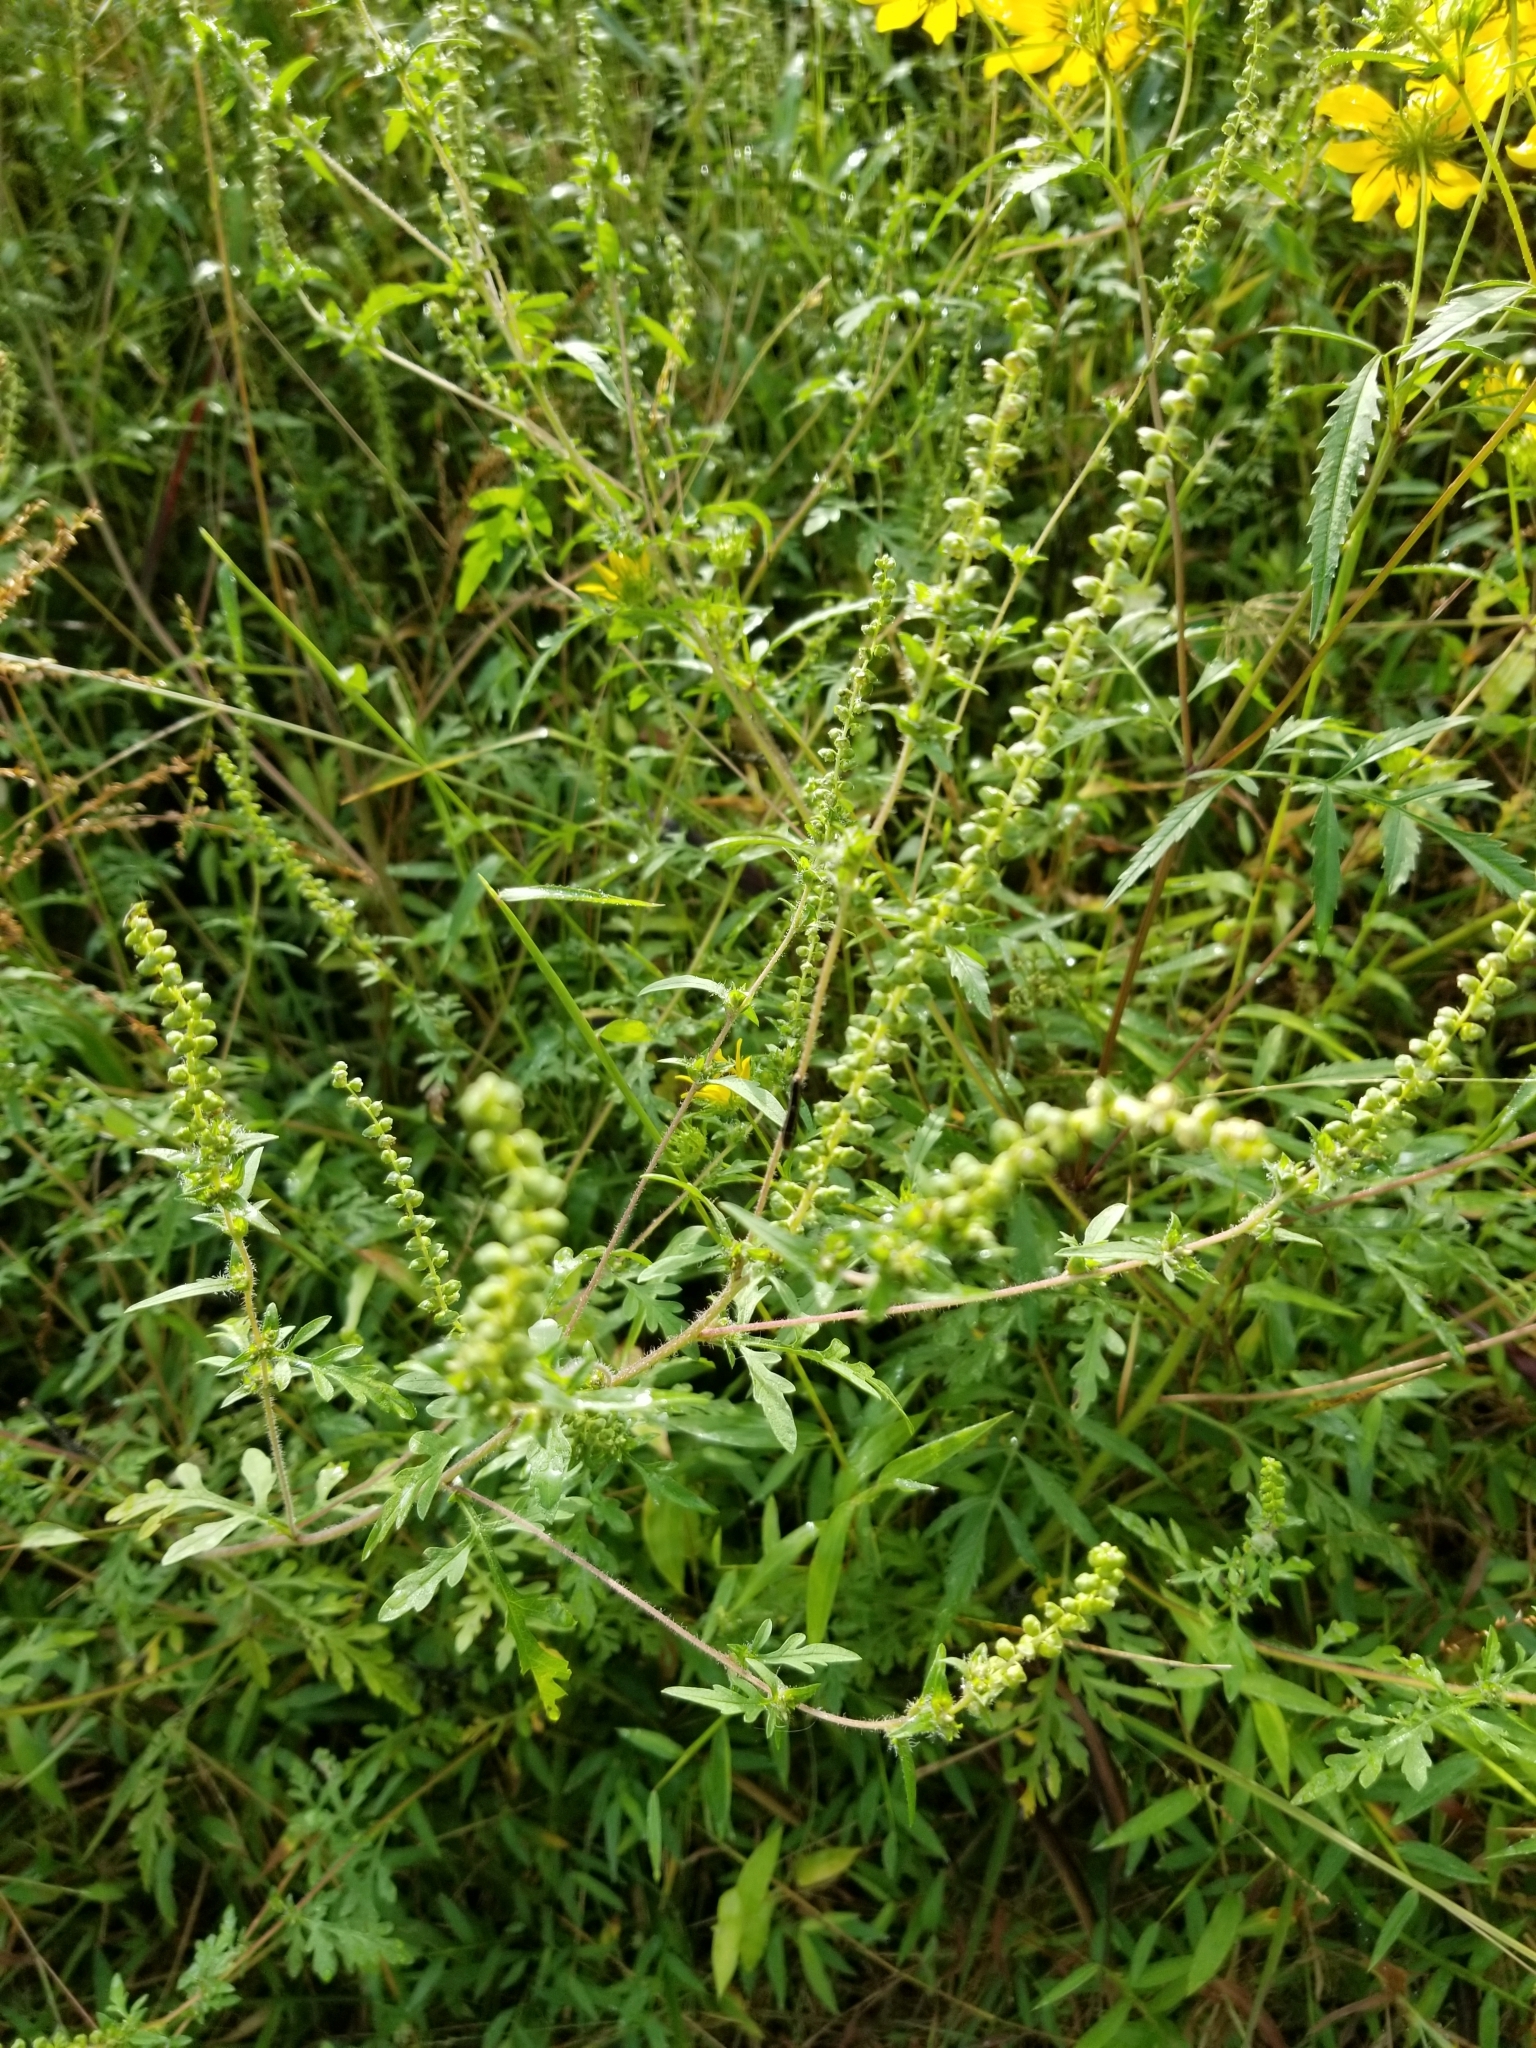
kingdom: Plantae
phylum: Tracheophyta
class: Magnoliopsida
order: Asterales
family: Asteraceae
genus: Ambrosia
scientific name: Ambrosia artemisiifolia
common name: Annual ragweed
